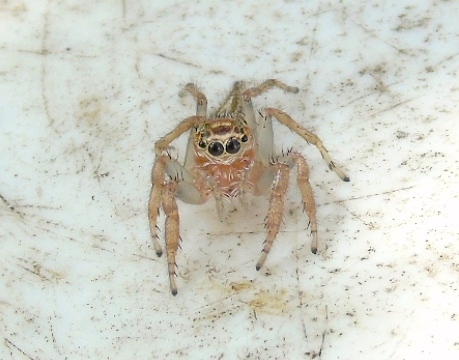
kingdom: Animalia
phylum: Arthropoda
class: Arachnida
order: Araneae
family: Salticidae
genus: Colonus
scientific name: Colonus
